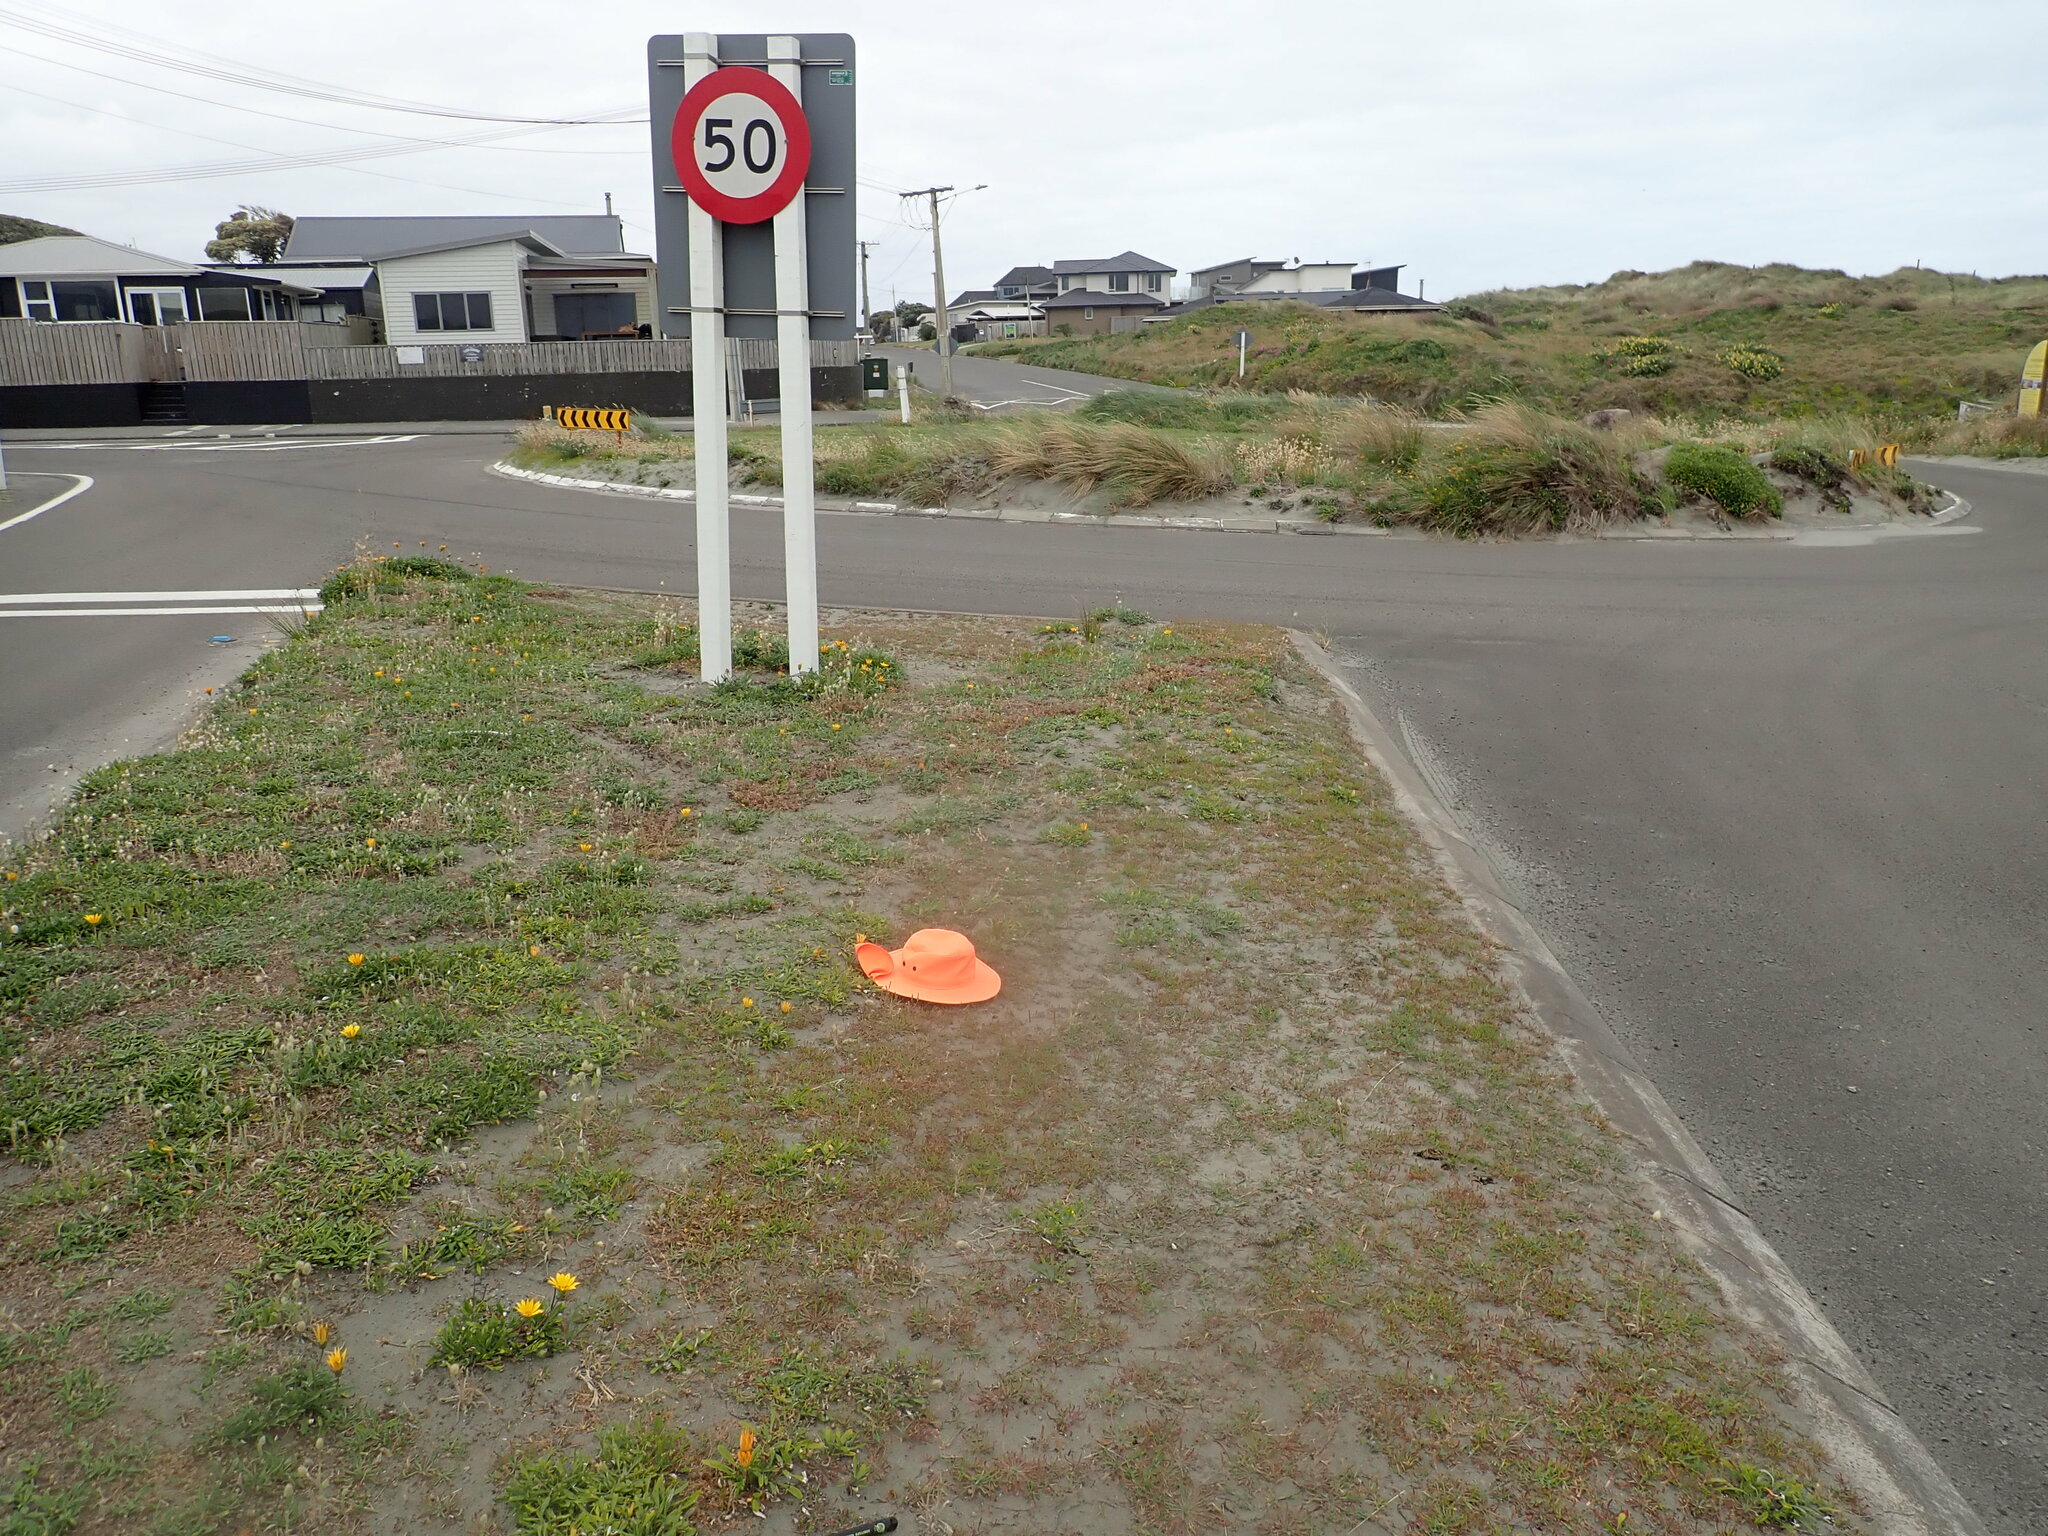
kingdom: Plantae
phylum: Tracheophyta
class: Magnoliopsida
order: Lamiales
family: Plantaginaceae
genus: Plantago
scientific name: Plantago coronopus
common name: Buck's-horn plantain
